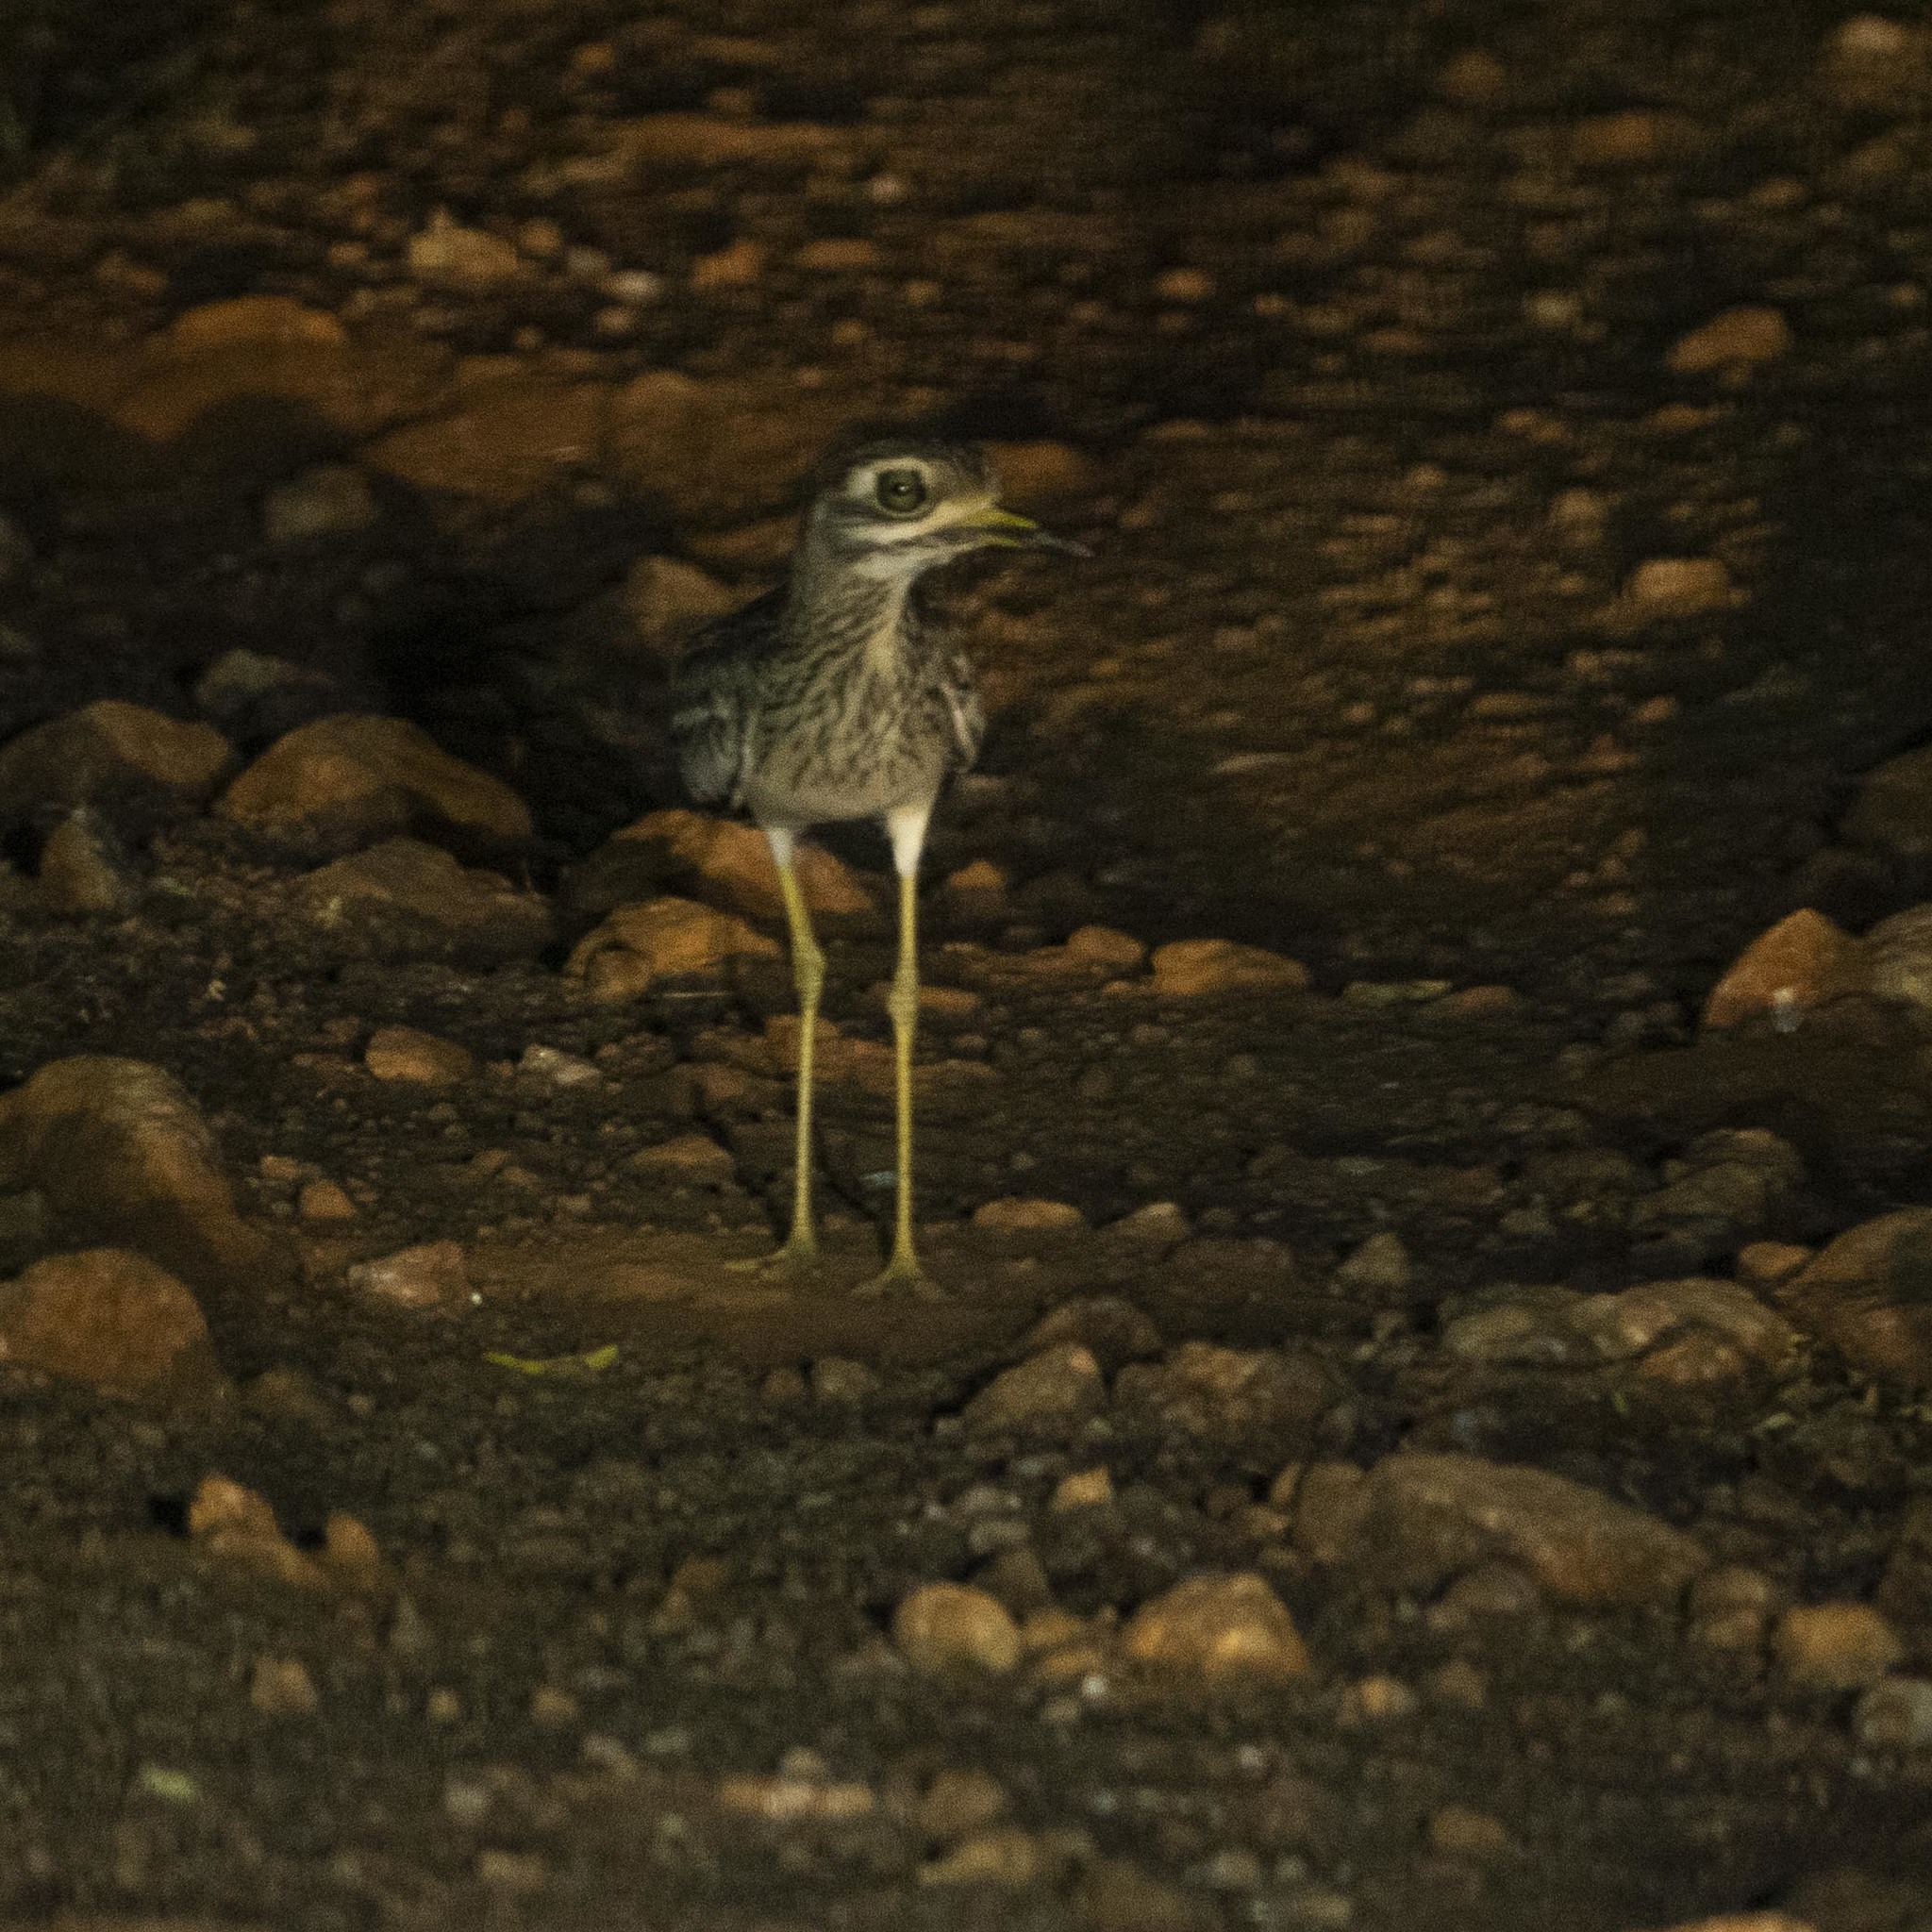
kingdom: Animalia
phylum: Chordata
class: Aves
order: Charadriiformes
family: Burhinidae
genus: Burhinus
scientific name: Burhinus indicus
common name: Indian thick-knee
